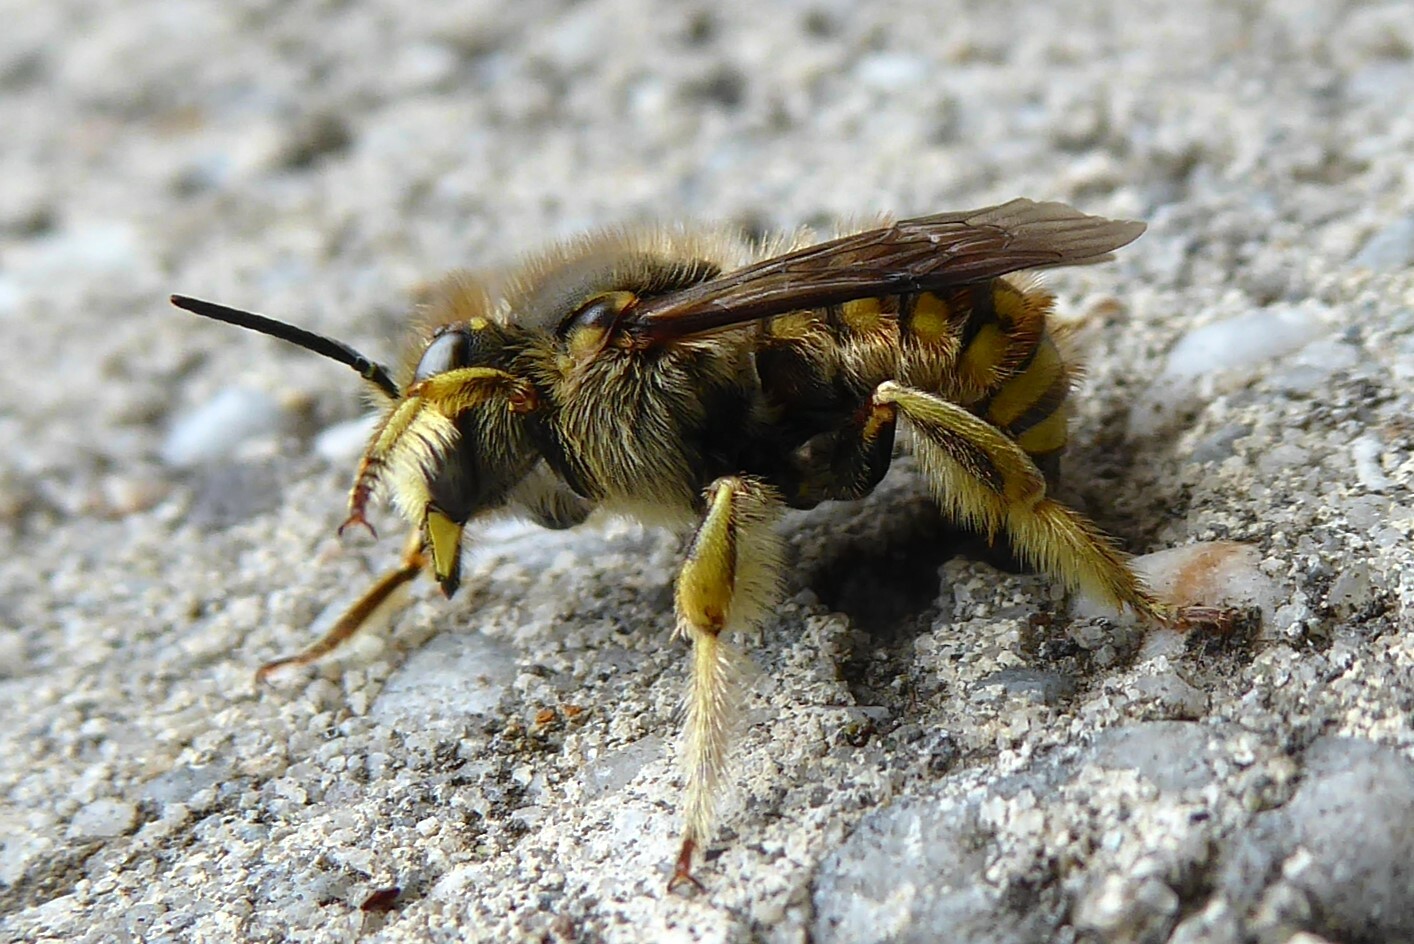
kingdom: Animalia
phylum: Arthropoda
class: Insecta
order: Hymenoptera
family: Megachilidae
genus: Anthidium
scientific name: Anthidium manicatum
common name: Wool carder bee
